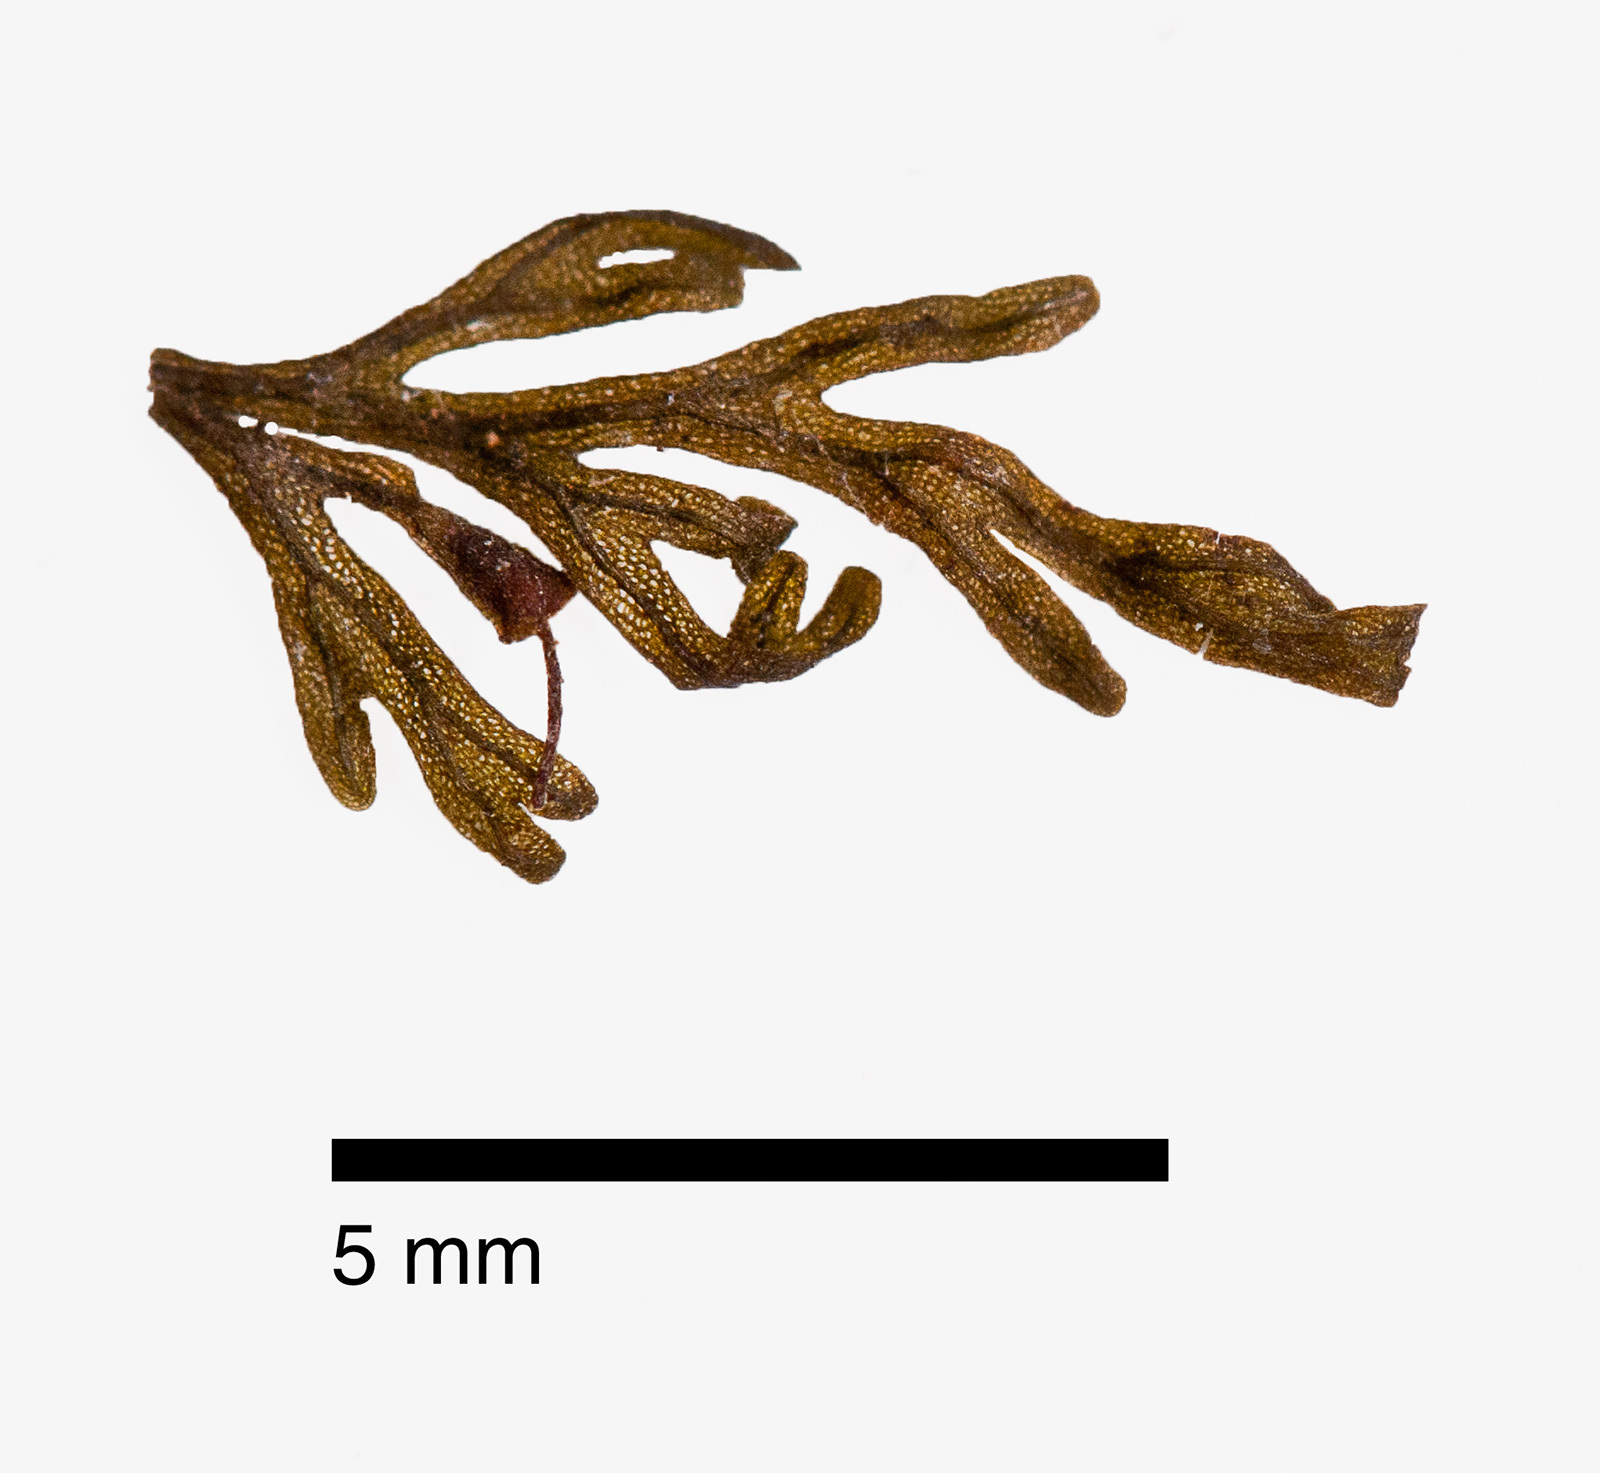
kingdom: Plantae
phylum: Tracheophyta
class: Polypodiopsida
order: Hymenophyllales
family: Hymenophyllaceae
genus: Abrodictyum
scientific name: Abrodictyum caudatum
